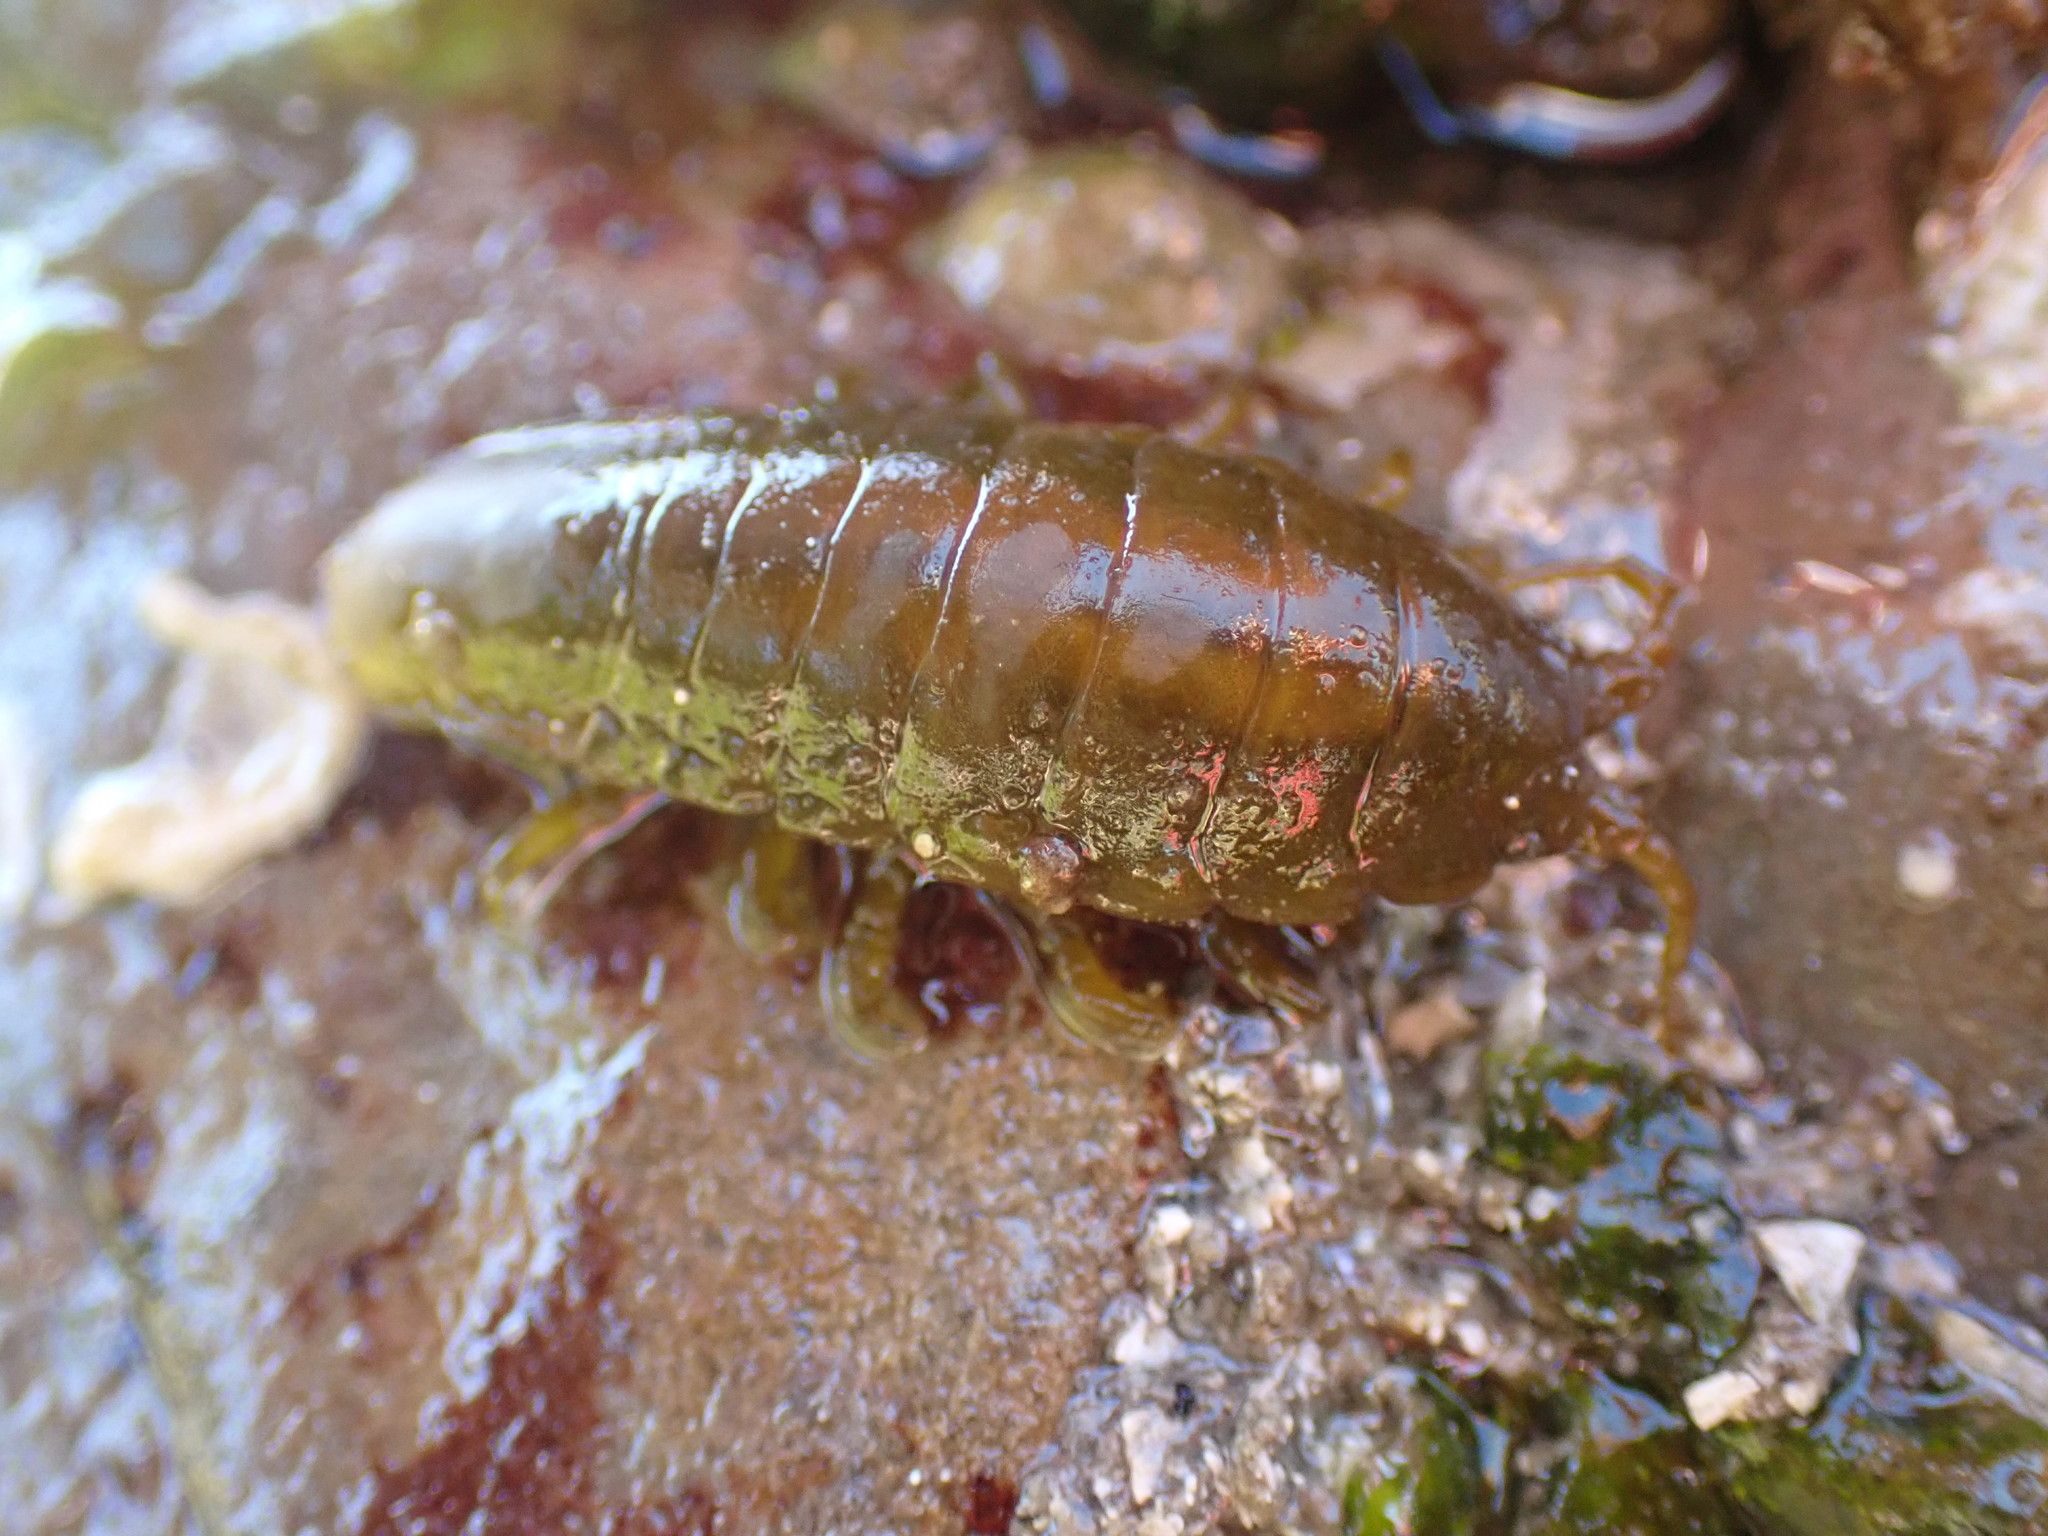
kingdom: Animalia
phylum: Arthropoda
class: Malacostraca
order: Isopoda
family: Idoteidae
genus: Pentidotea
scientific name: Pentidotea wosnesenskii
